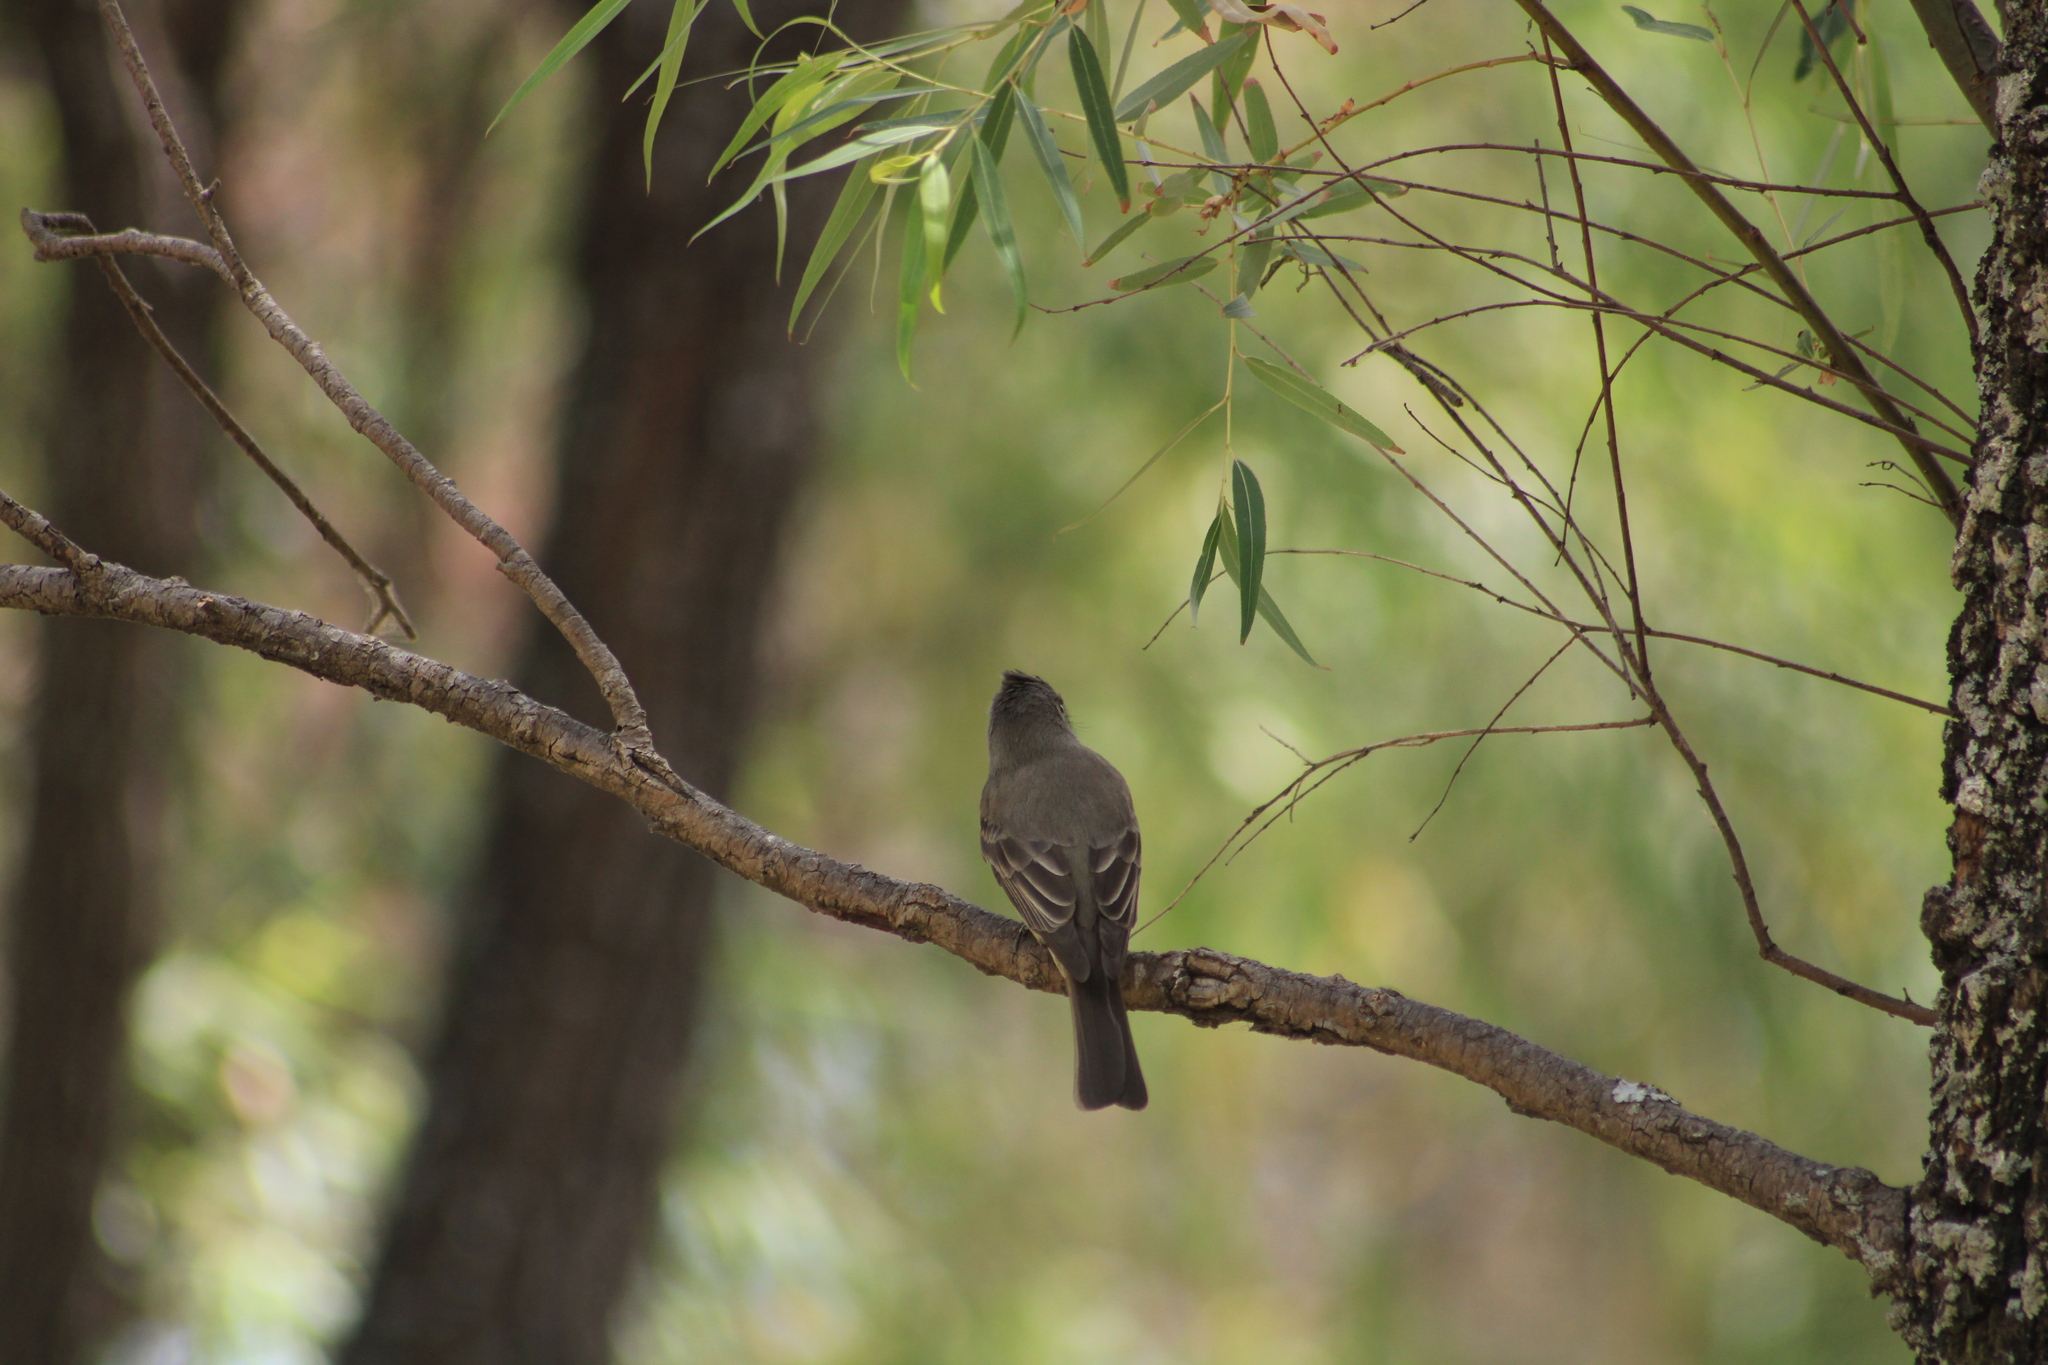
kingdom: Animalia
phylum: Chordata
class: Aves
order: Passeriformes
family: Tyrannidae
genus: Contopus
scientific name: Contopus pertinax
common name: Greater pewee
